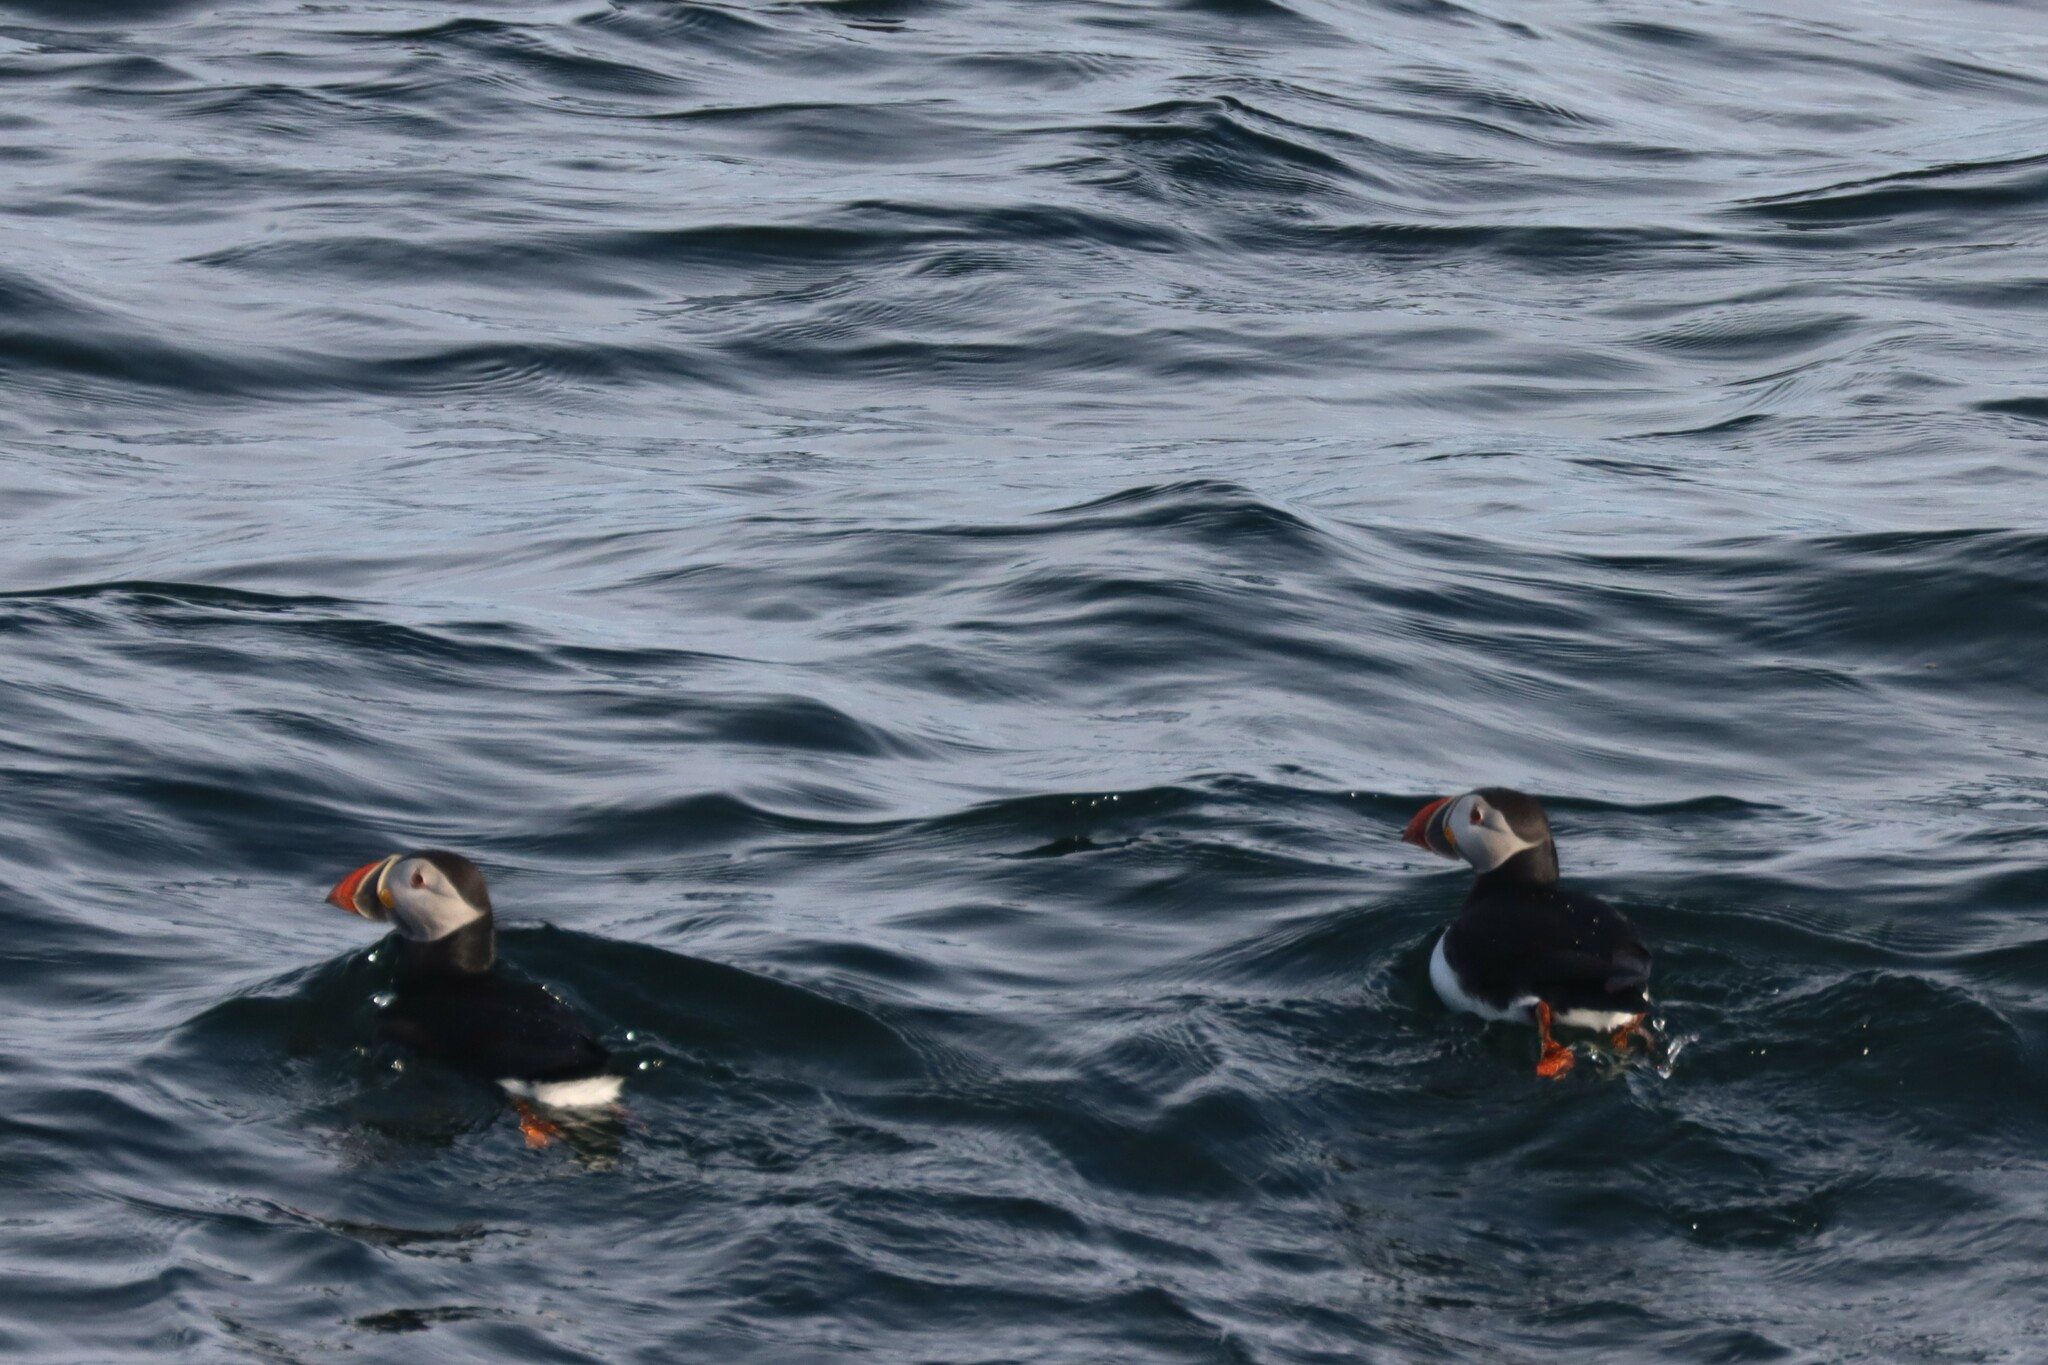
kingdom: Animalia
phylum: Chordata
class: Aves
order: Charadriiformes
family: Alcidae
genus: Fratercula
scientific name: Fratercula arctica
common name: Atlantic puffin
